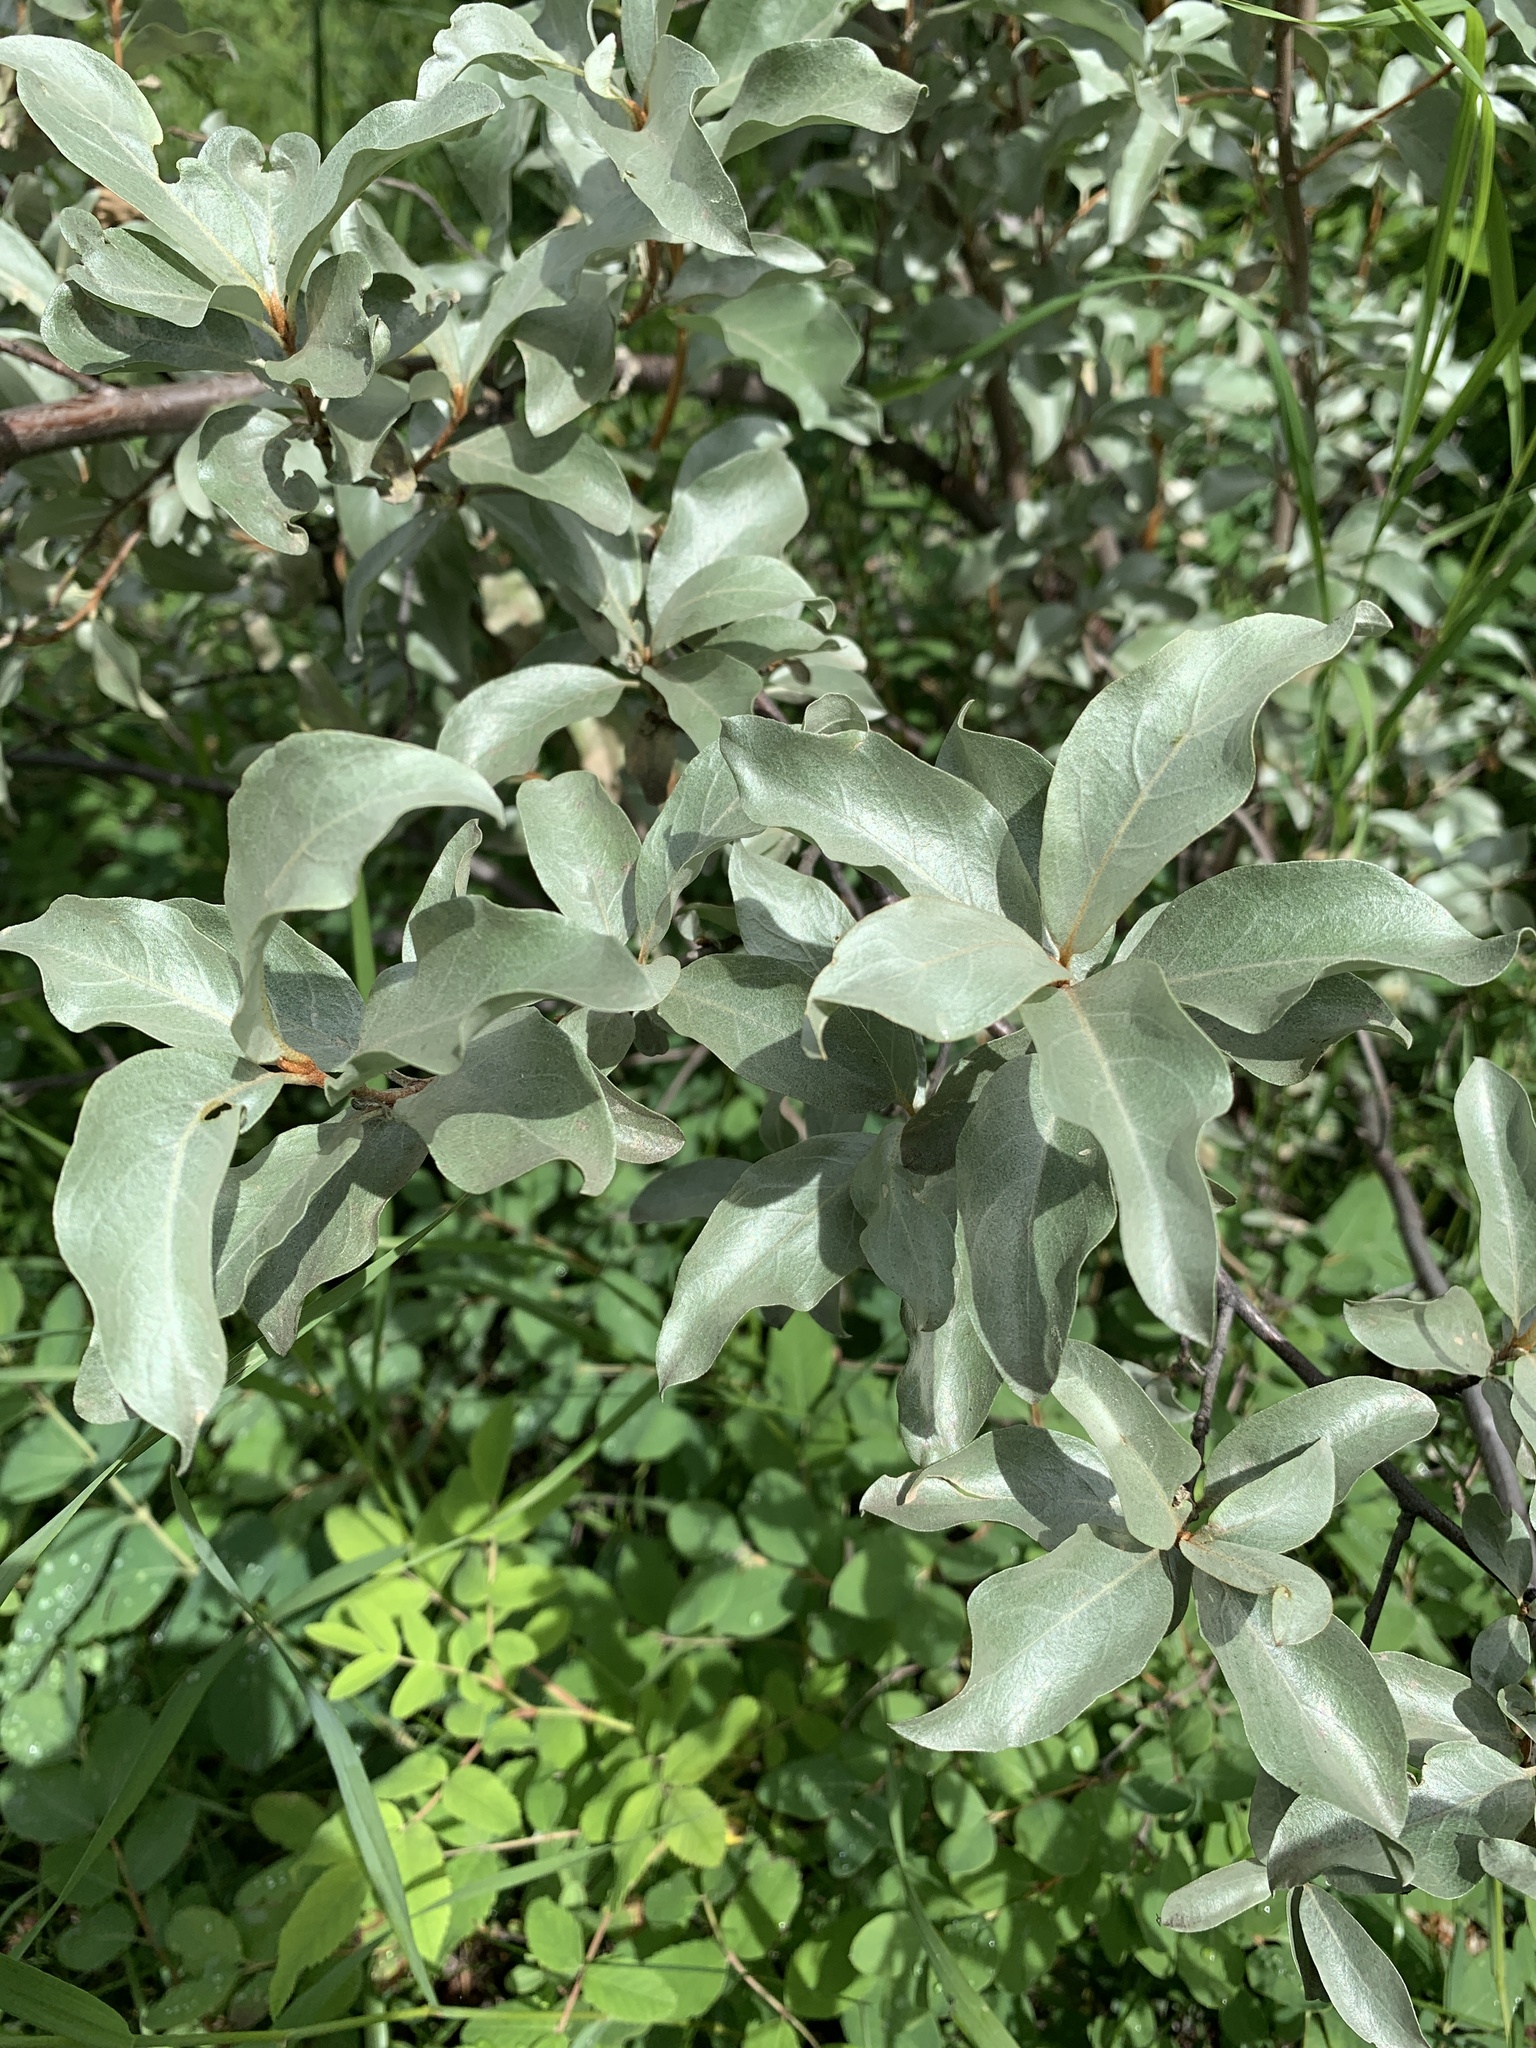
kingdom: Plantae
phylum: Tracheophyta
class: Magnoliopsida
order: Rosales
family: Elaeagnaceae
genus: Elaeagnus
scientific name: Elaeagnus commutata
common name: Silverberry
